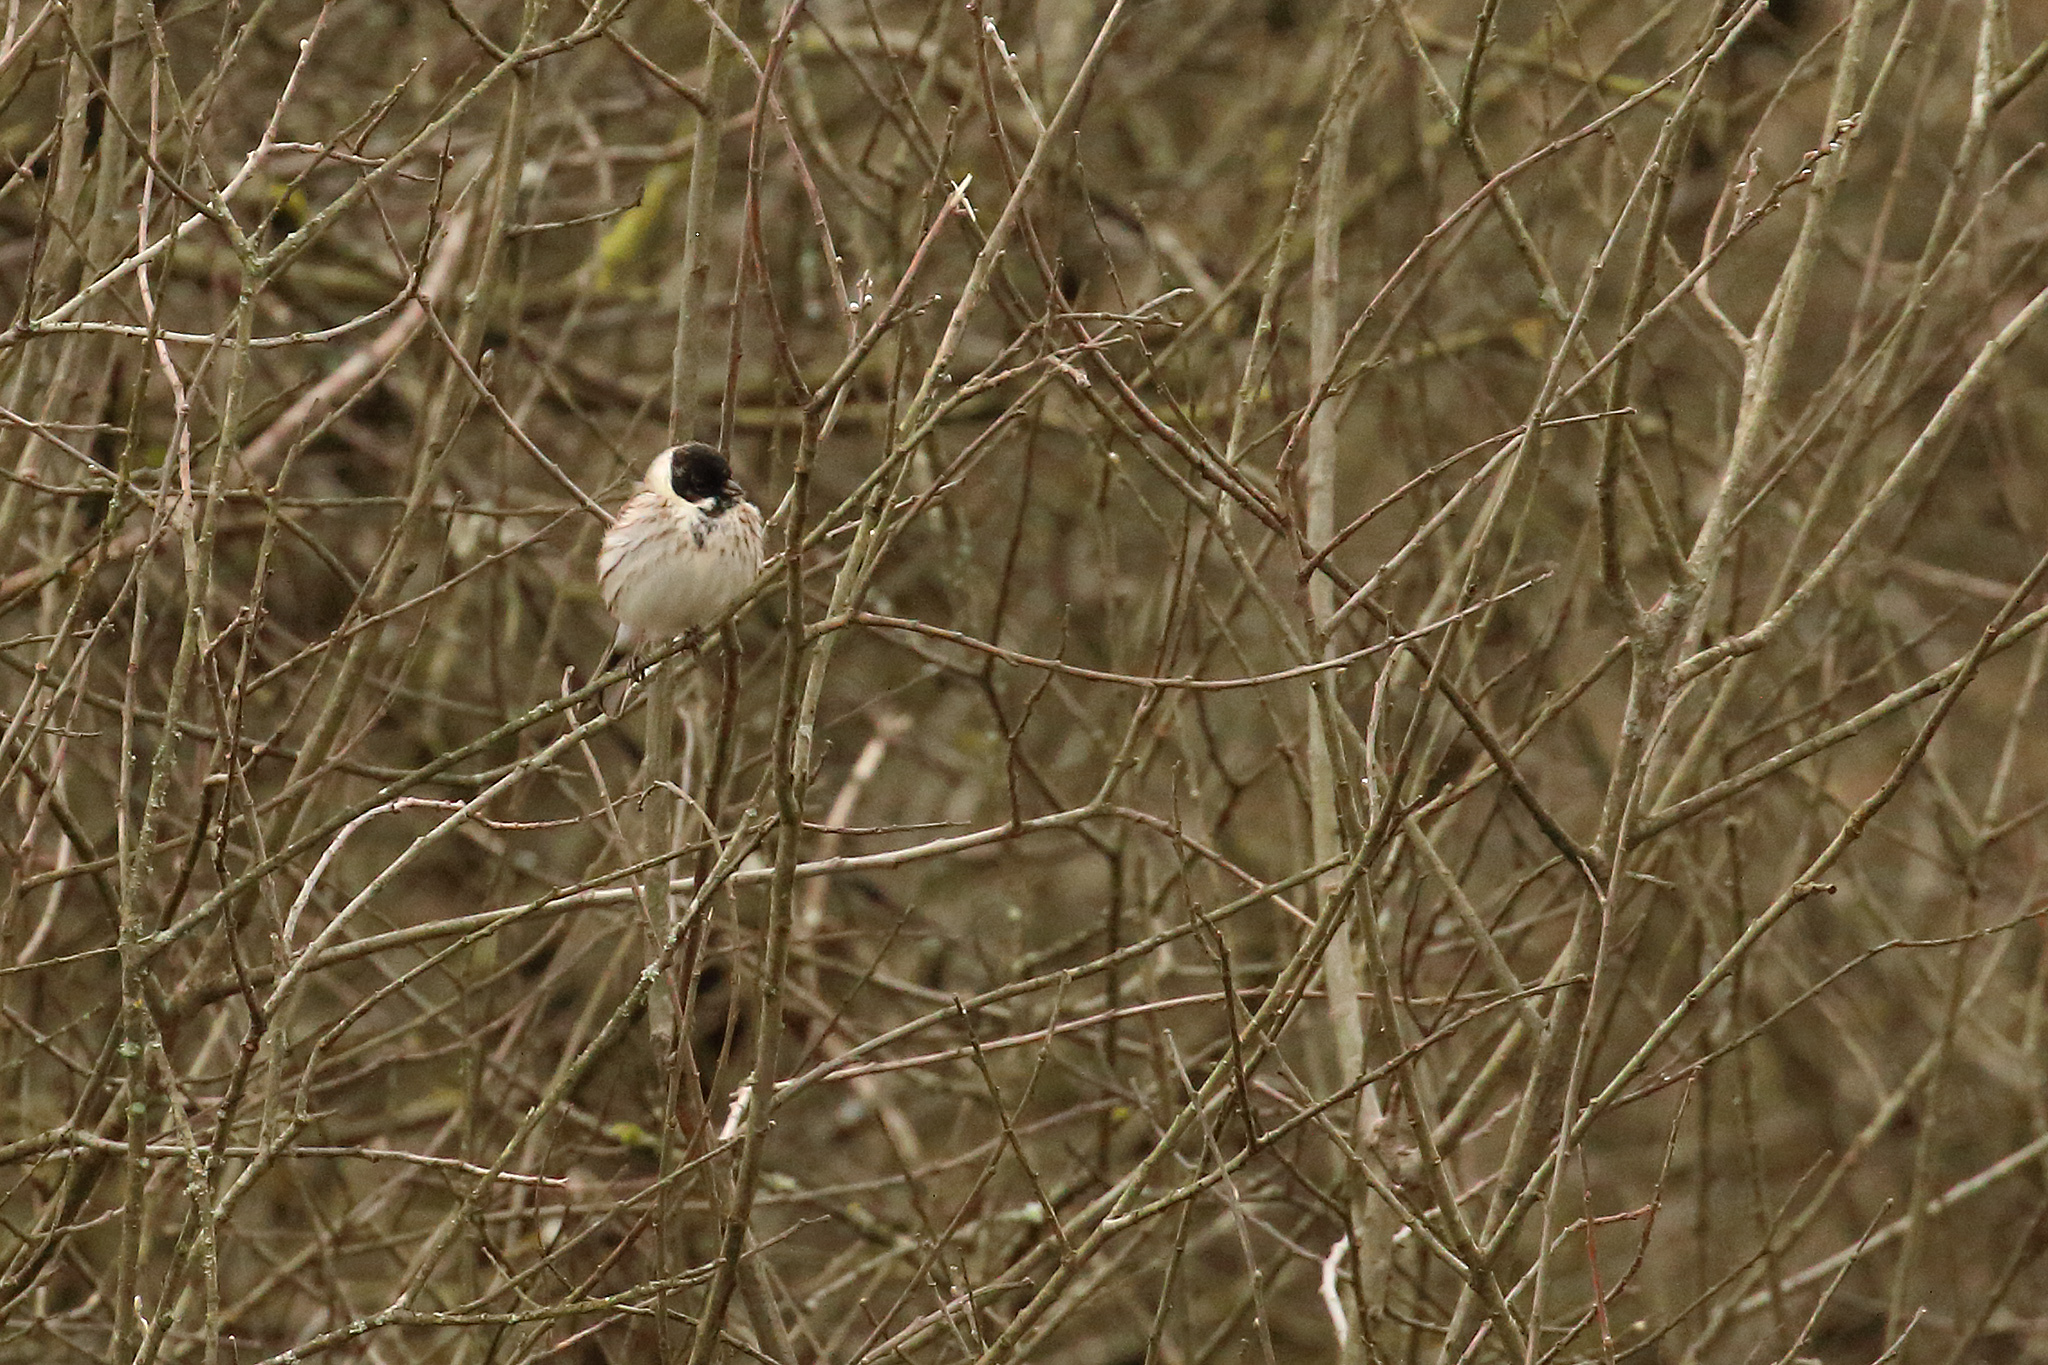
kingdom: Animalia
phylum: Chordata
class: Aves
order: Passeriformes
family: Emberizidae
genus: Emberiza
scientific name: Emberiza schoeniclus
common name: Reed bunting
